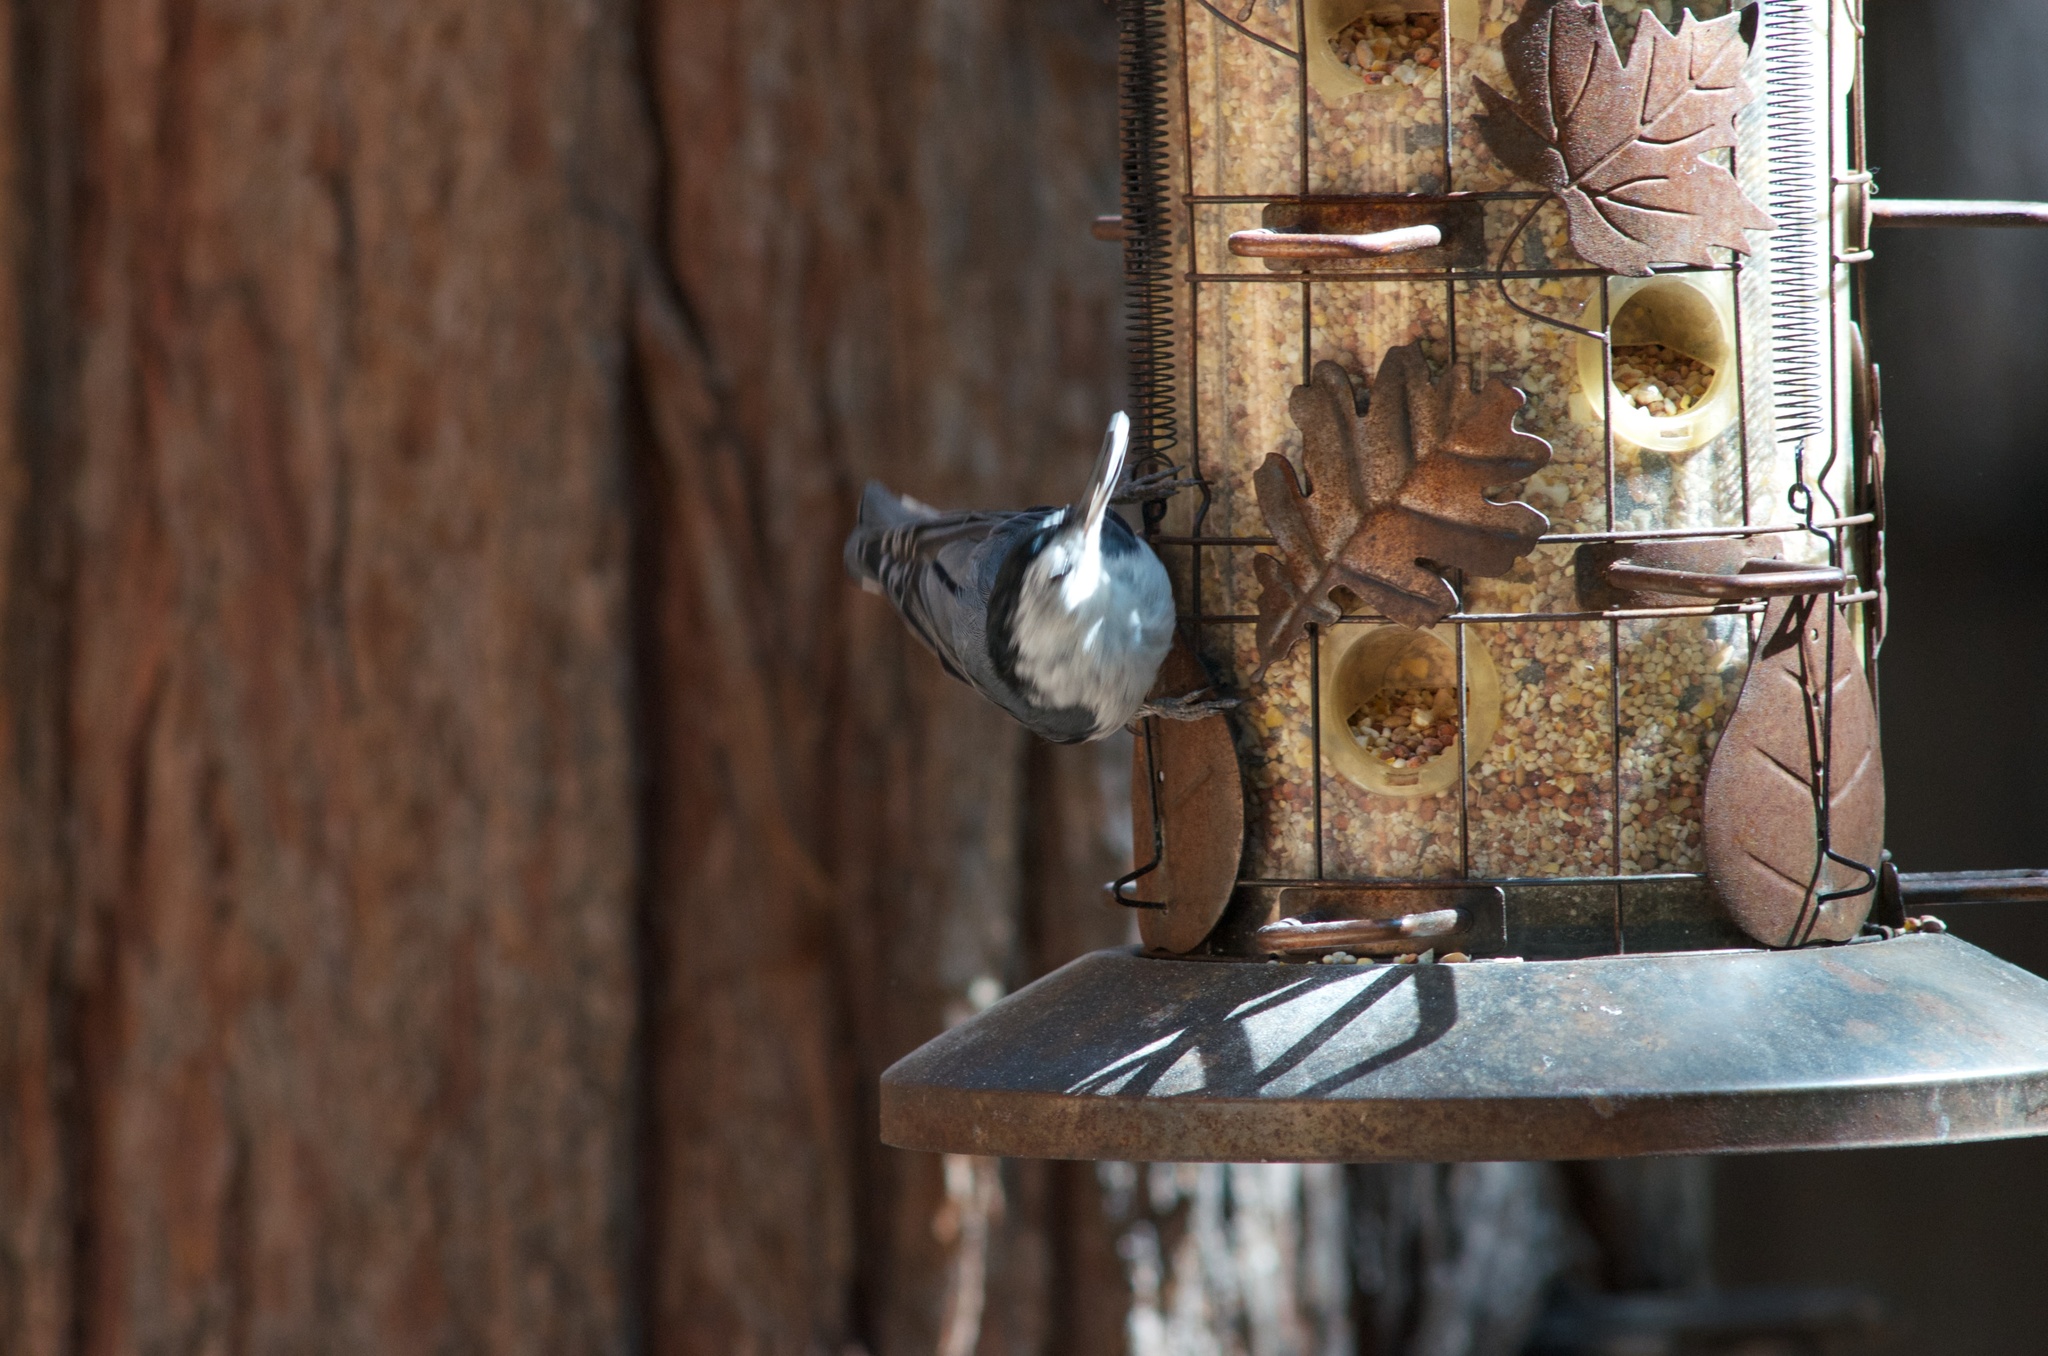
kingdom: Animalia
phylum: Chordata
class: Aves
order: Passeriformes
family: Sittidae
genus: Sitta
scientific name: Sitta carolinensis
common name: White-breasted nuthatch
